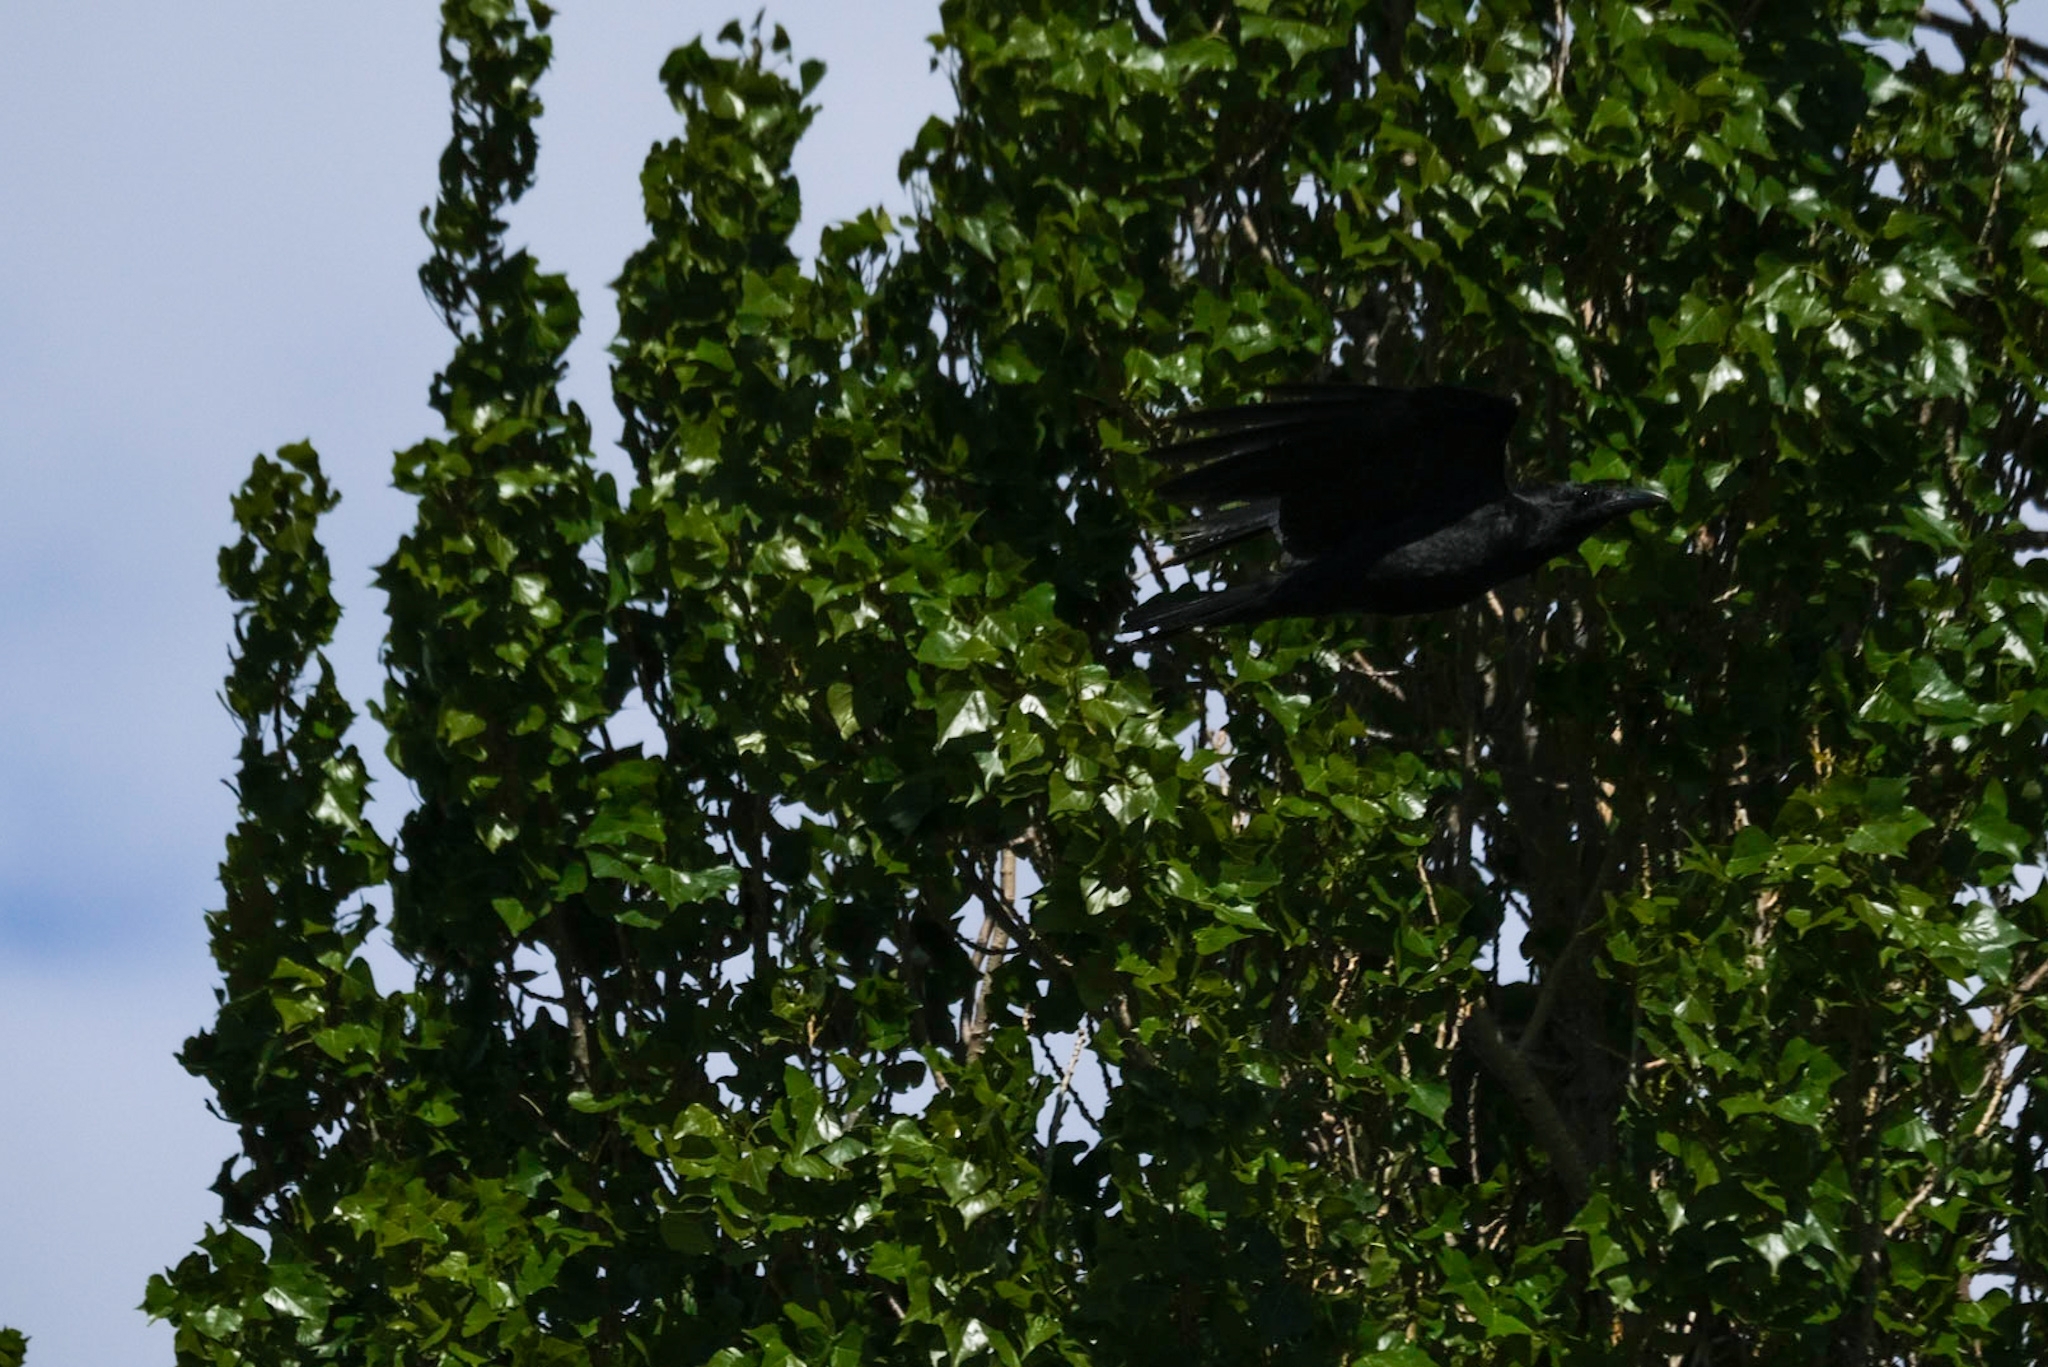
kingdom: Animalia
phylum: Chordata
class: Aves
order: Passeriformes
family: Corvidae
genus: Corvus
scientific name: Corvus tasmanicus
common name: Forest raven
